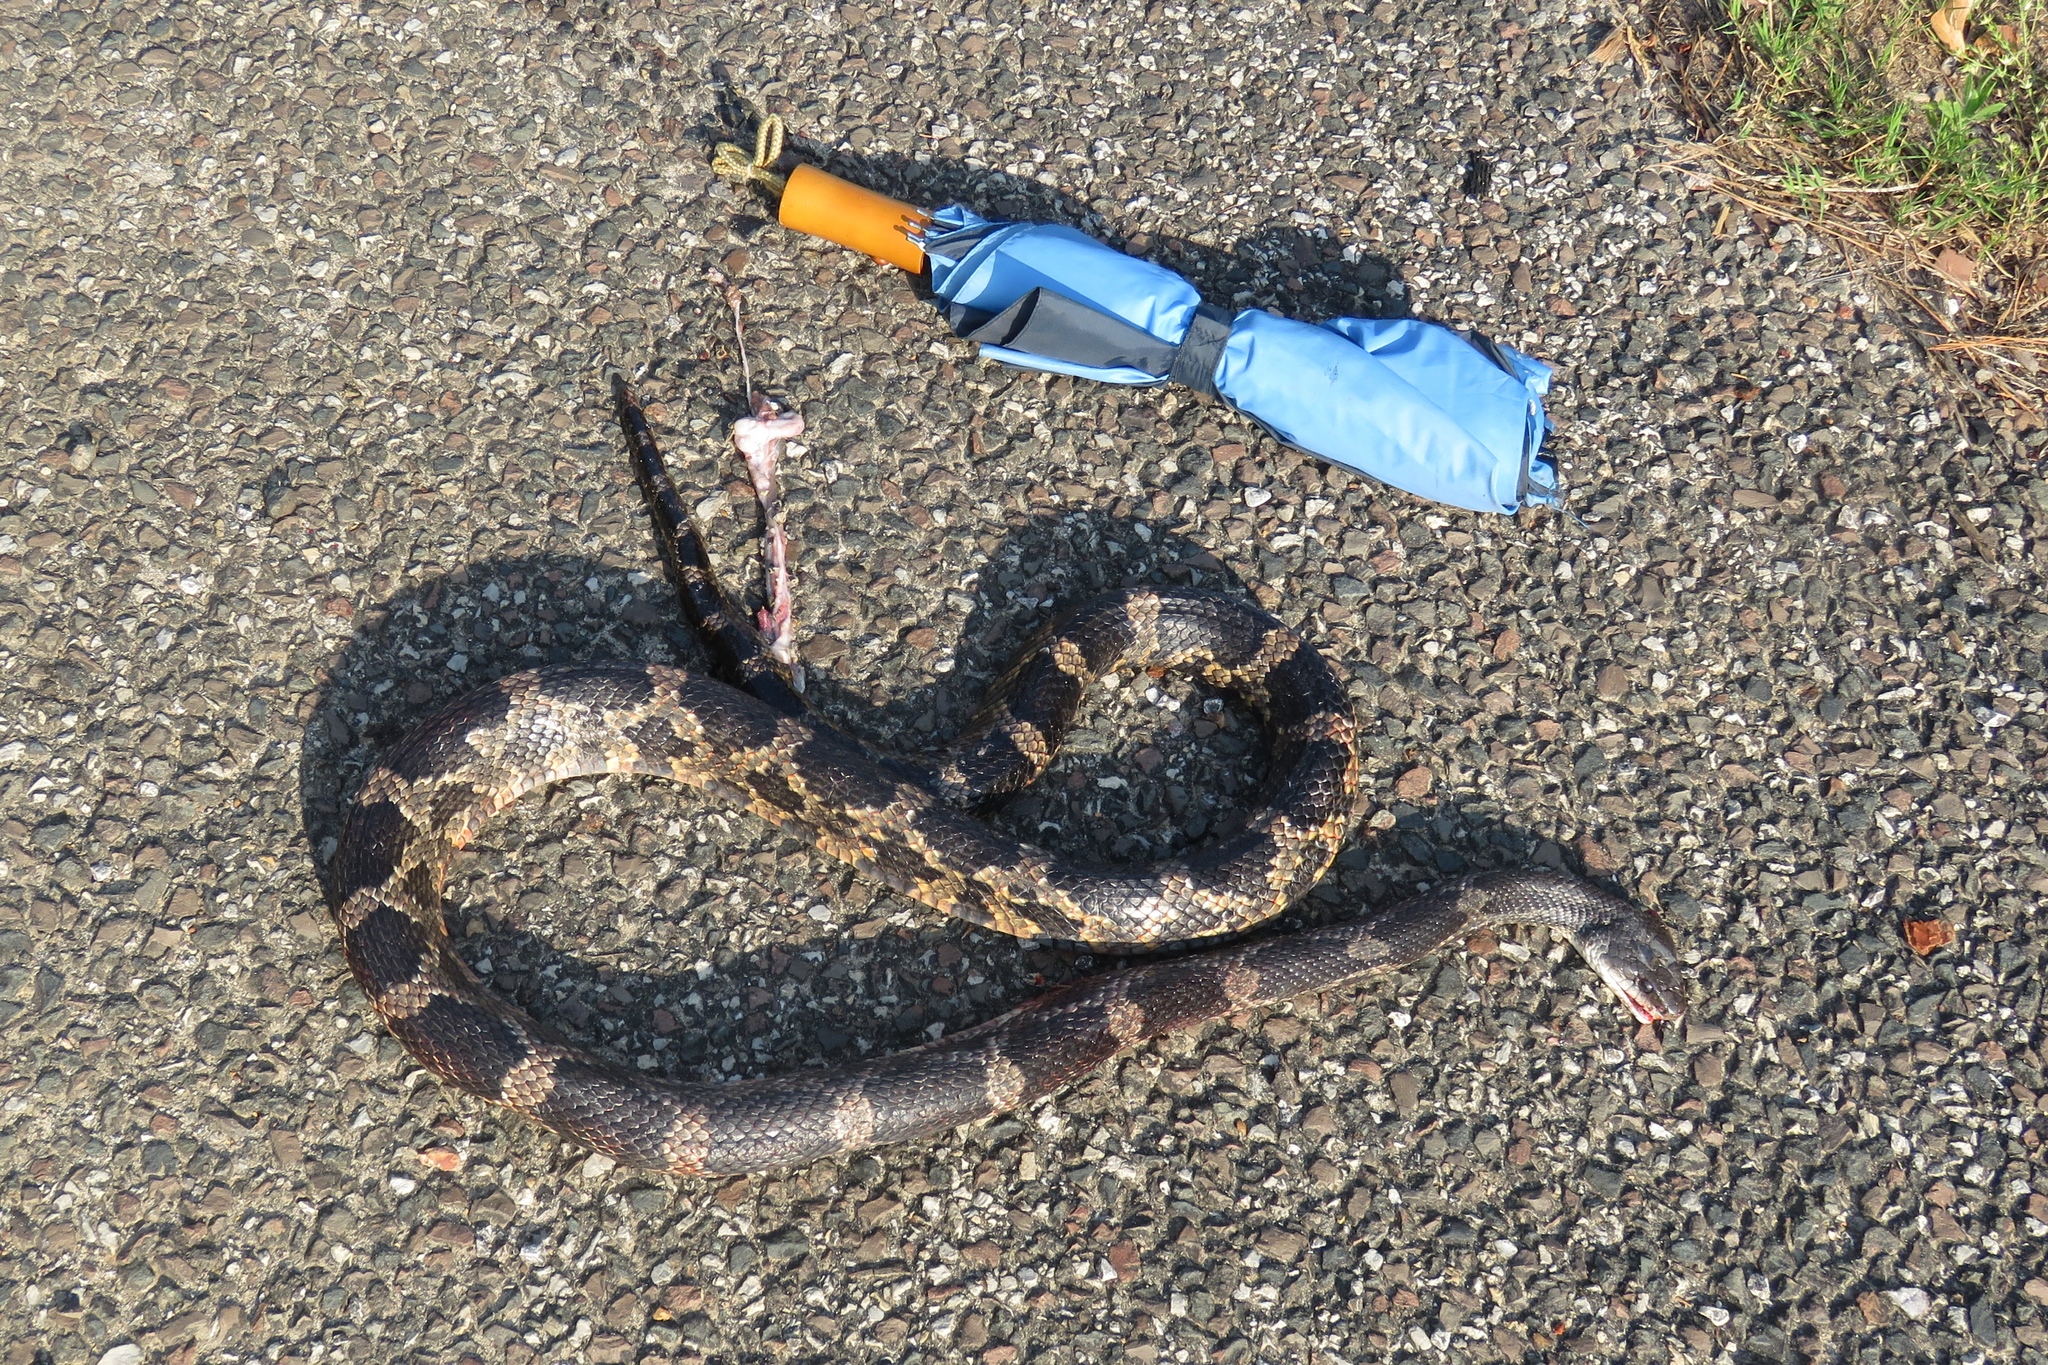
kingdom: Animalia
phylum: Chordata
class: Squamata
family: Colubridae
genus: Pantherophis
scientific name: Pantherophis obsoletus
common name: Black rat snake
